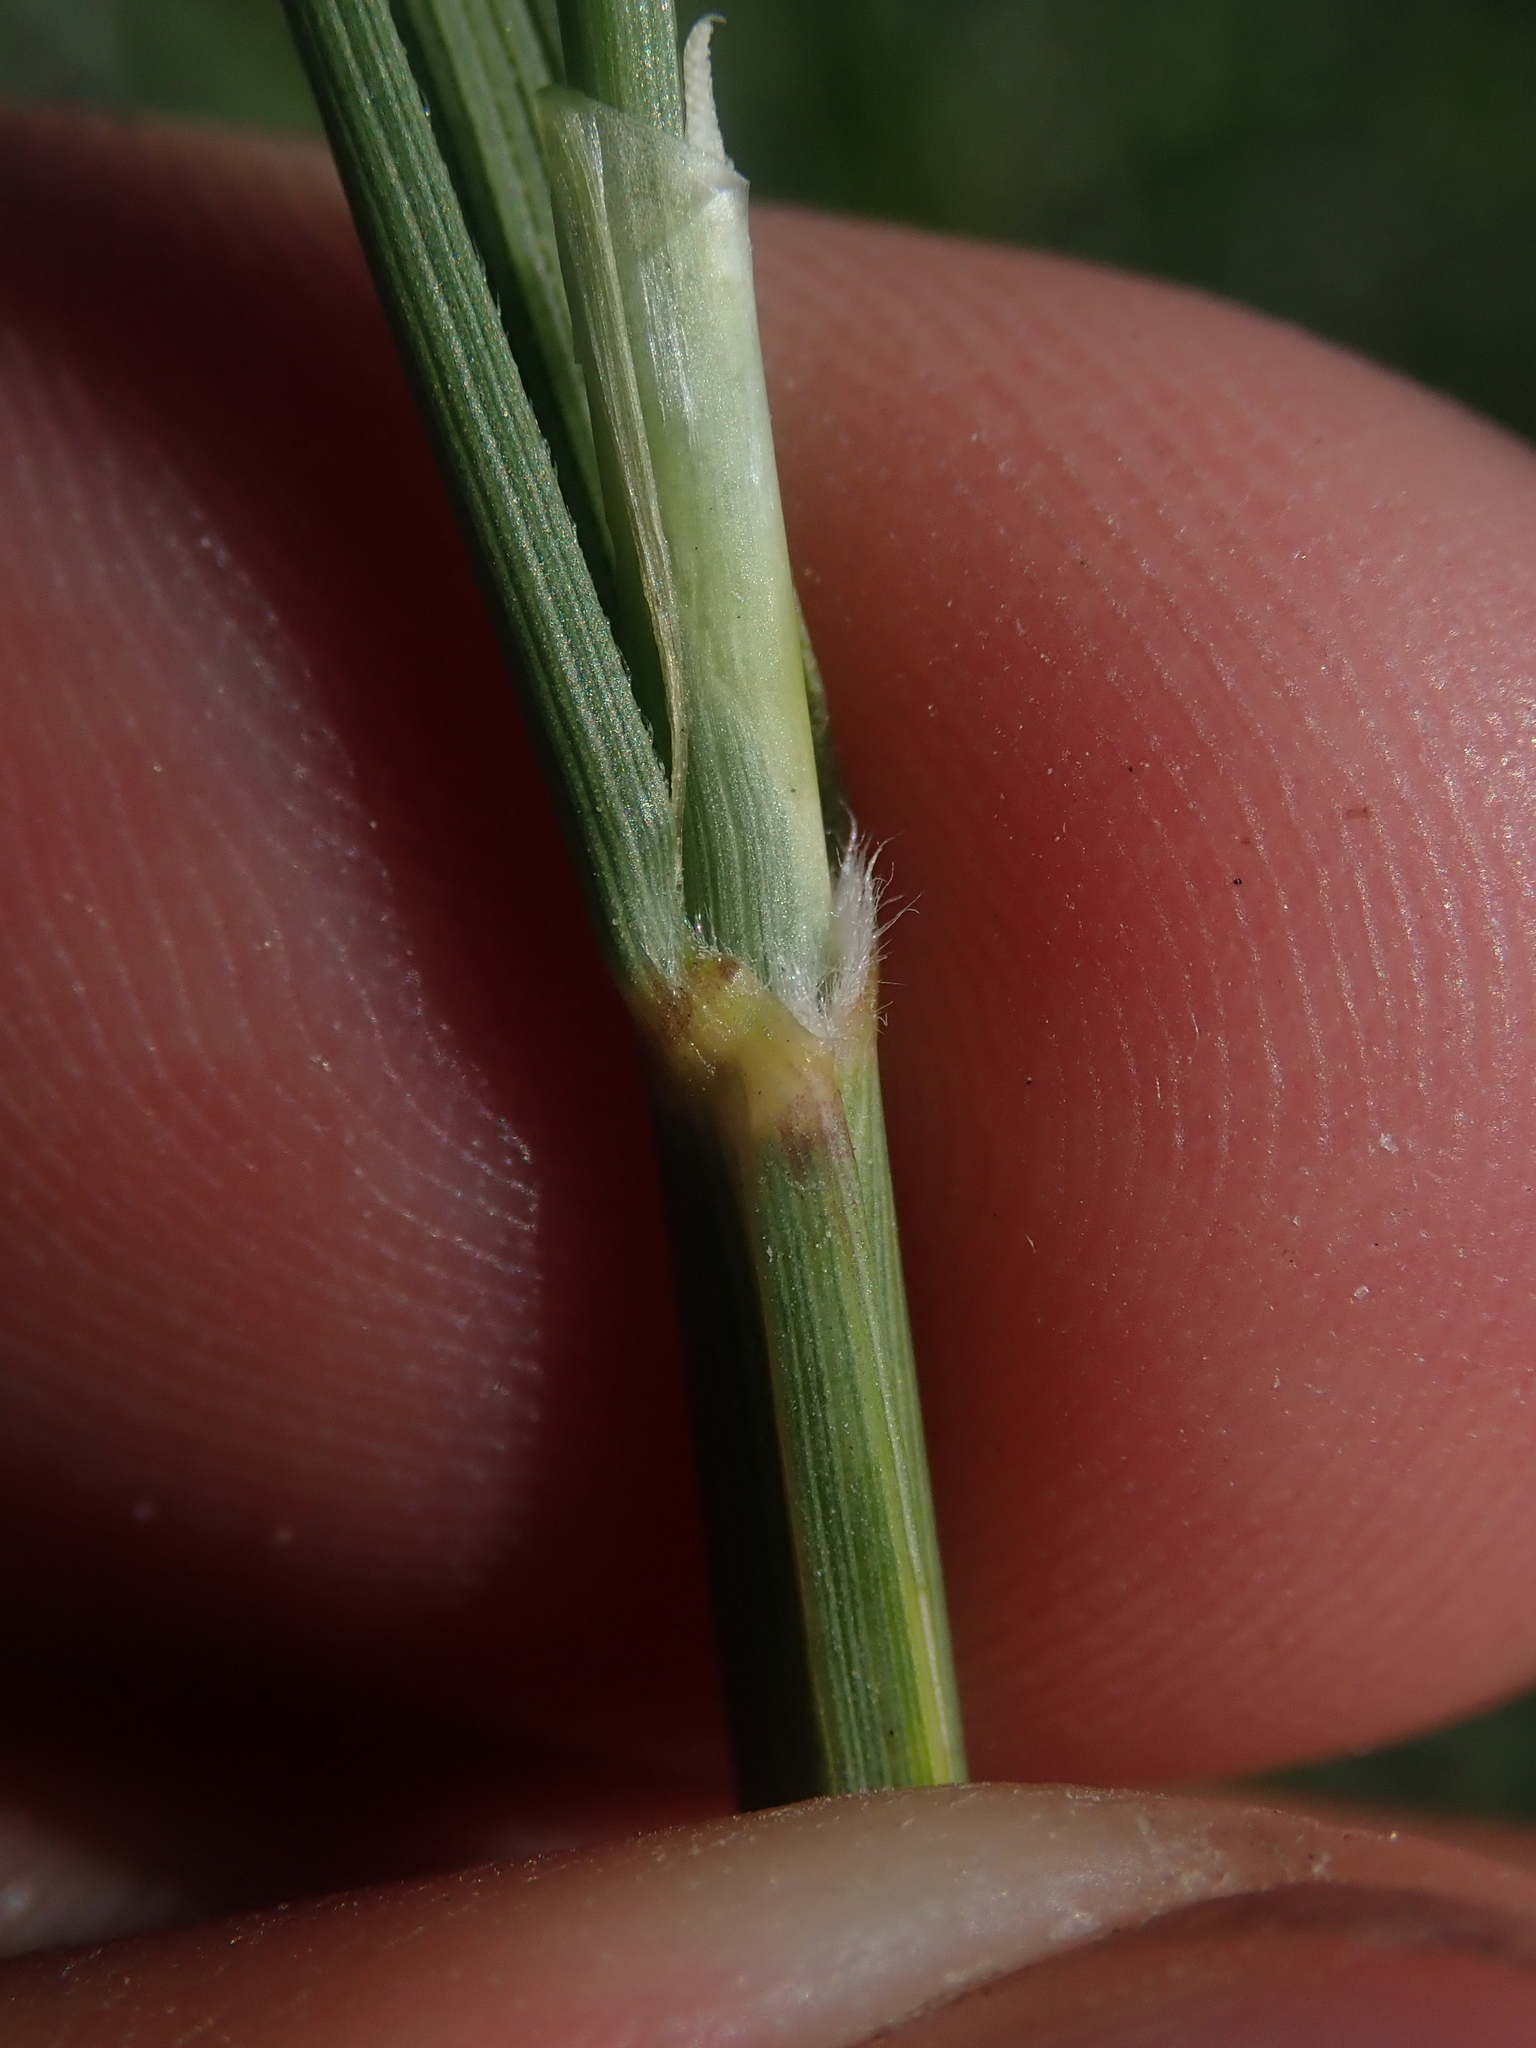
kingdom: Plantae
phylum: Tracheophyta
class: Liliopsida
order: Poales
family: Poaceae
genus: Sporobolus
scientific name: Sporobolus hookerianus
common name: Alkali cordgrass
